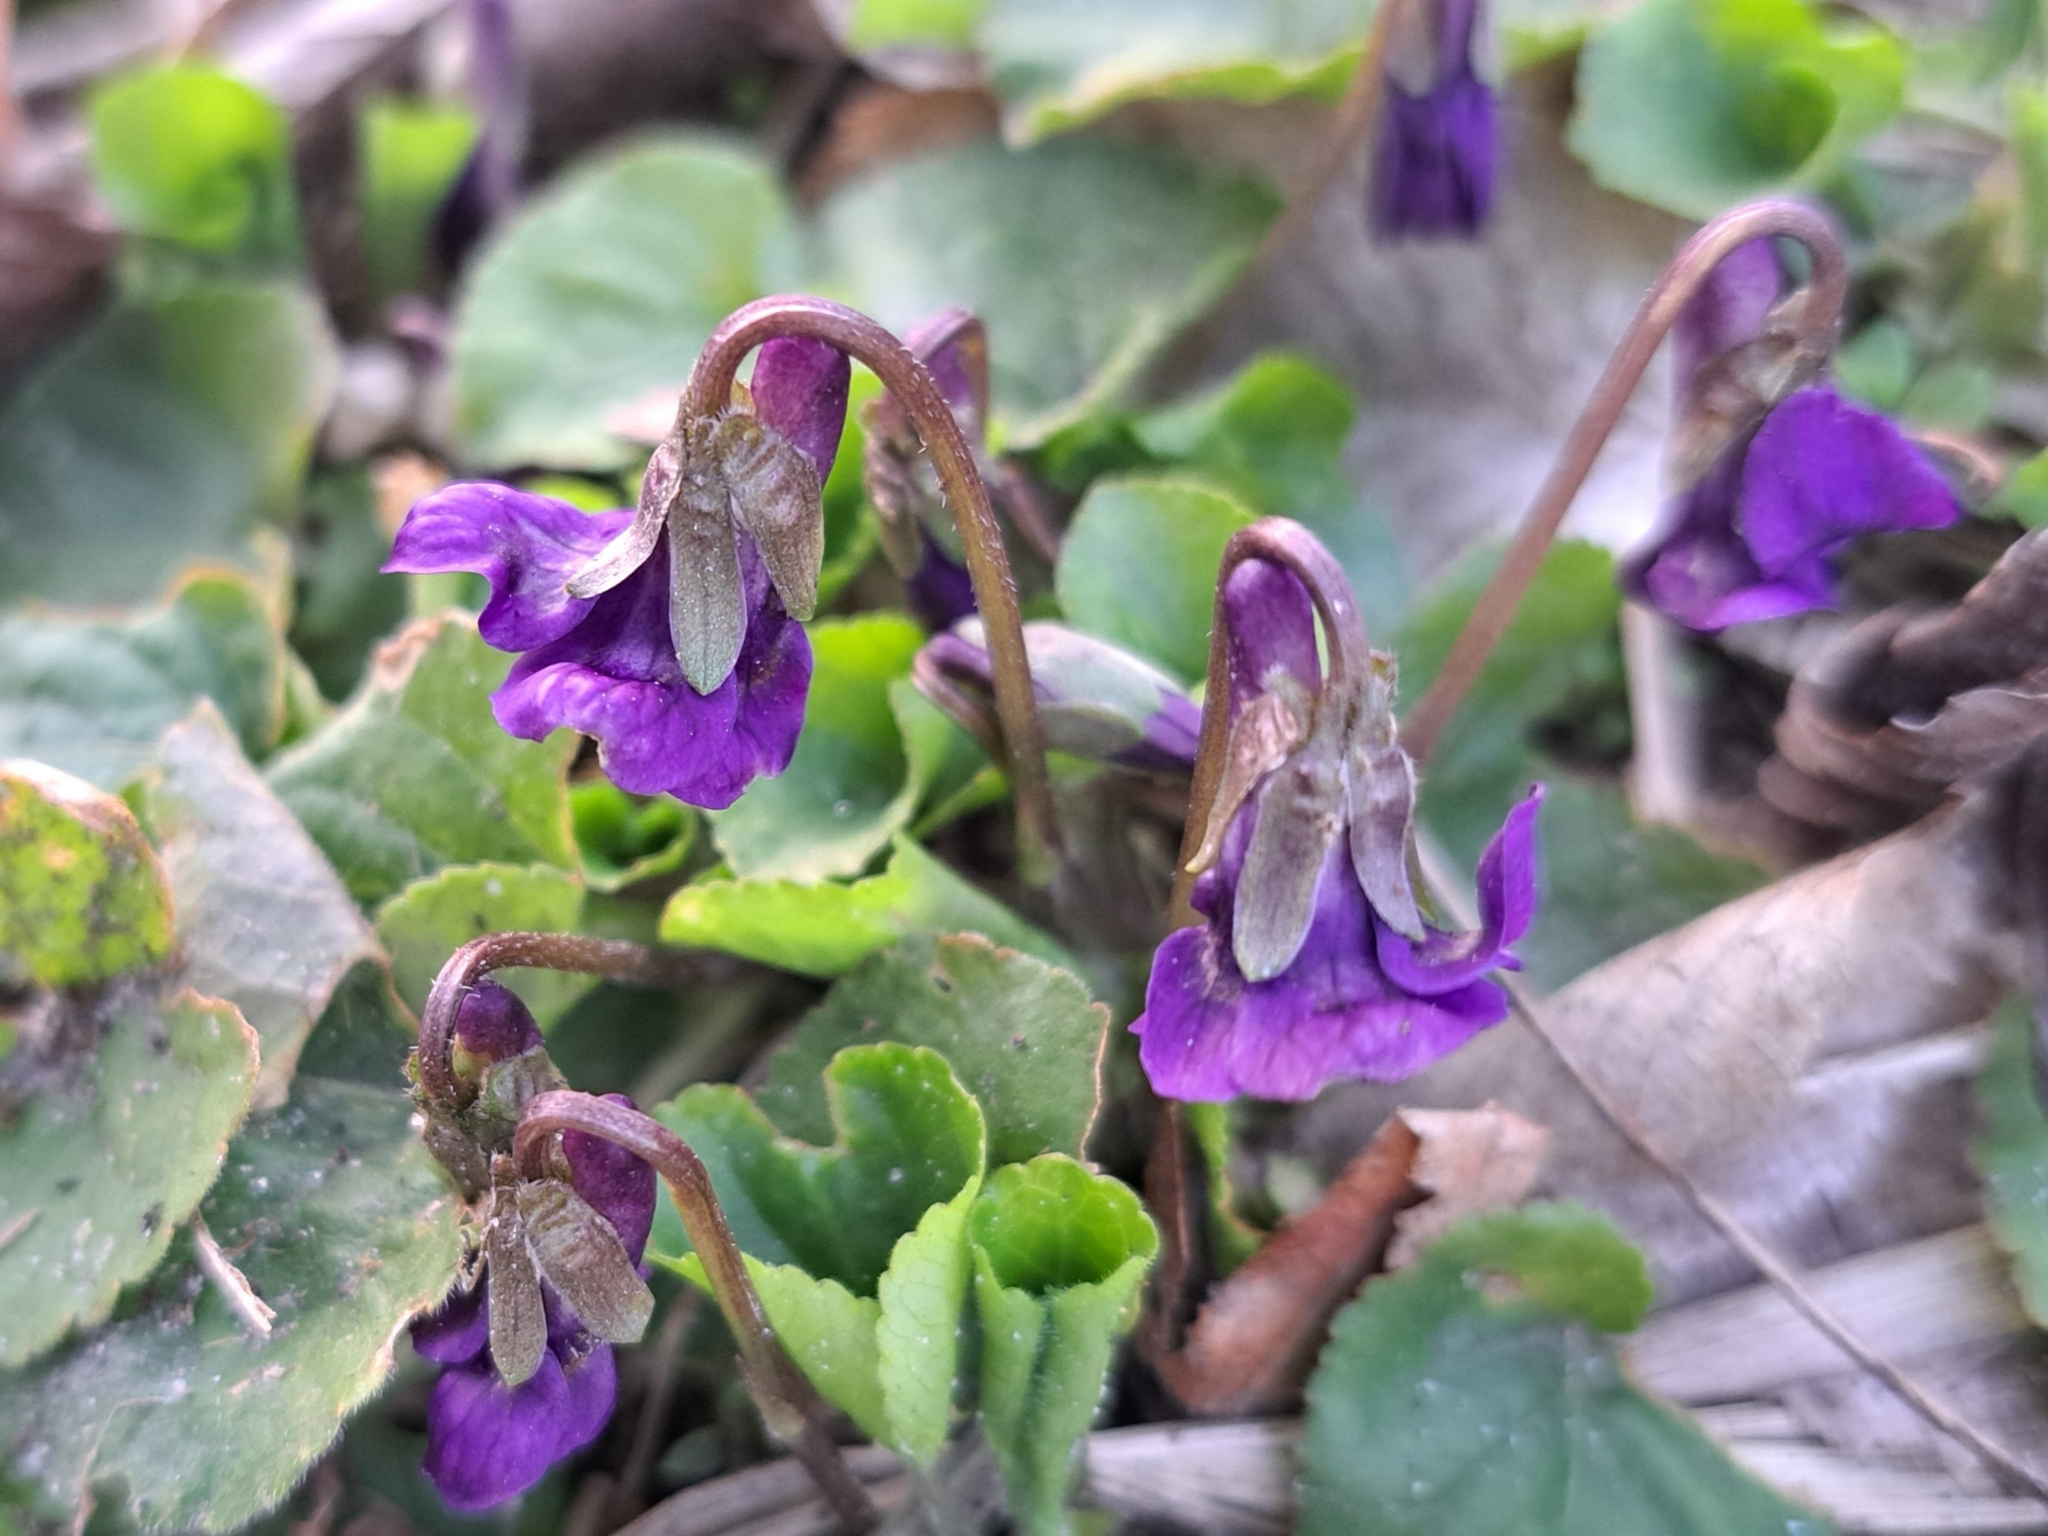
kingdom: Plantae
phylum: Tracheophyta
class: Magnoliopsida
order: Malpighiales
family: Violaceae
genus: Viola
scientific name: Viola odorata
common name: Sweet violet
